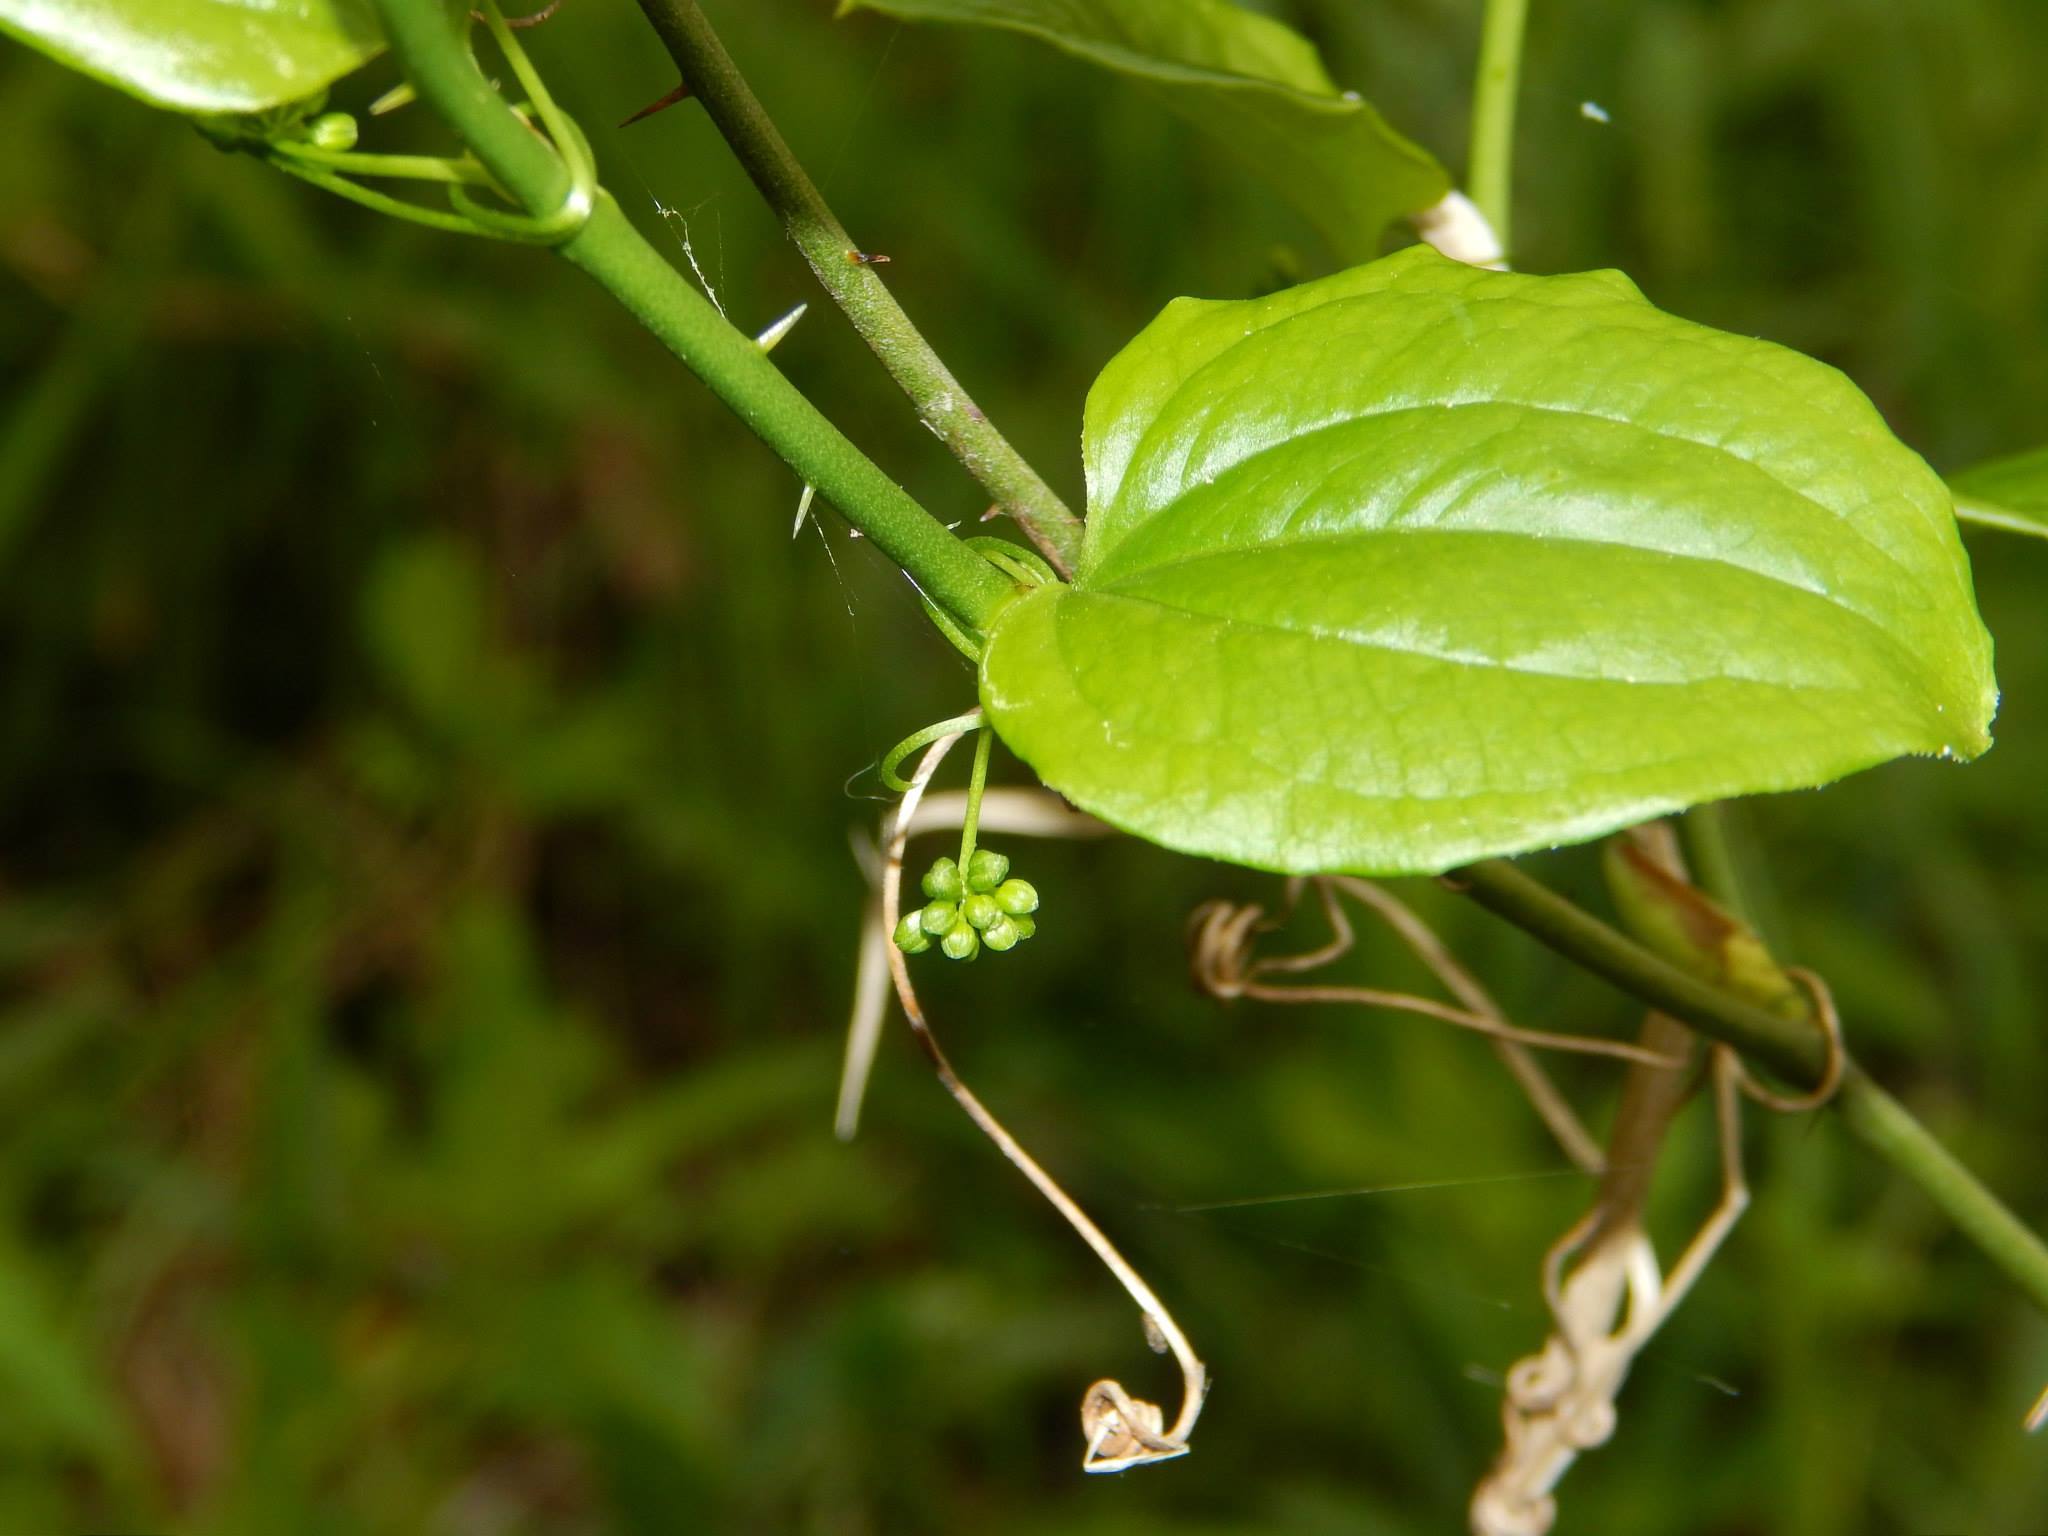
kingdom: Plantae
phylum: Tracheophyta
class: Liliopsida
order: Liliales
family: Smilacaceae
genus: Smilax
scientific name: Smilax tamnoides
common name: Hellfetter
